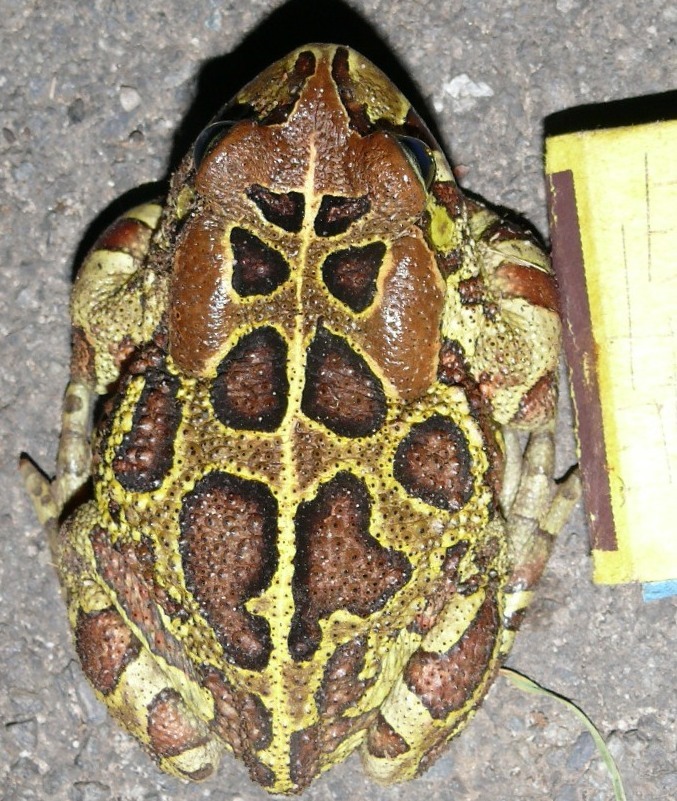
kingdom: Animalia
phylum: Chordata
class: Amphibia
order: Anura
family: Bufonidae
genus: Sclerophrys
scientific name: Sclerophrys pantherina
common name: Panther toad
